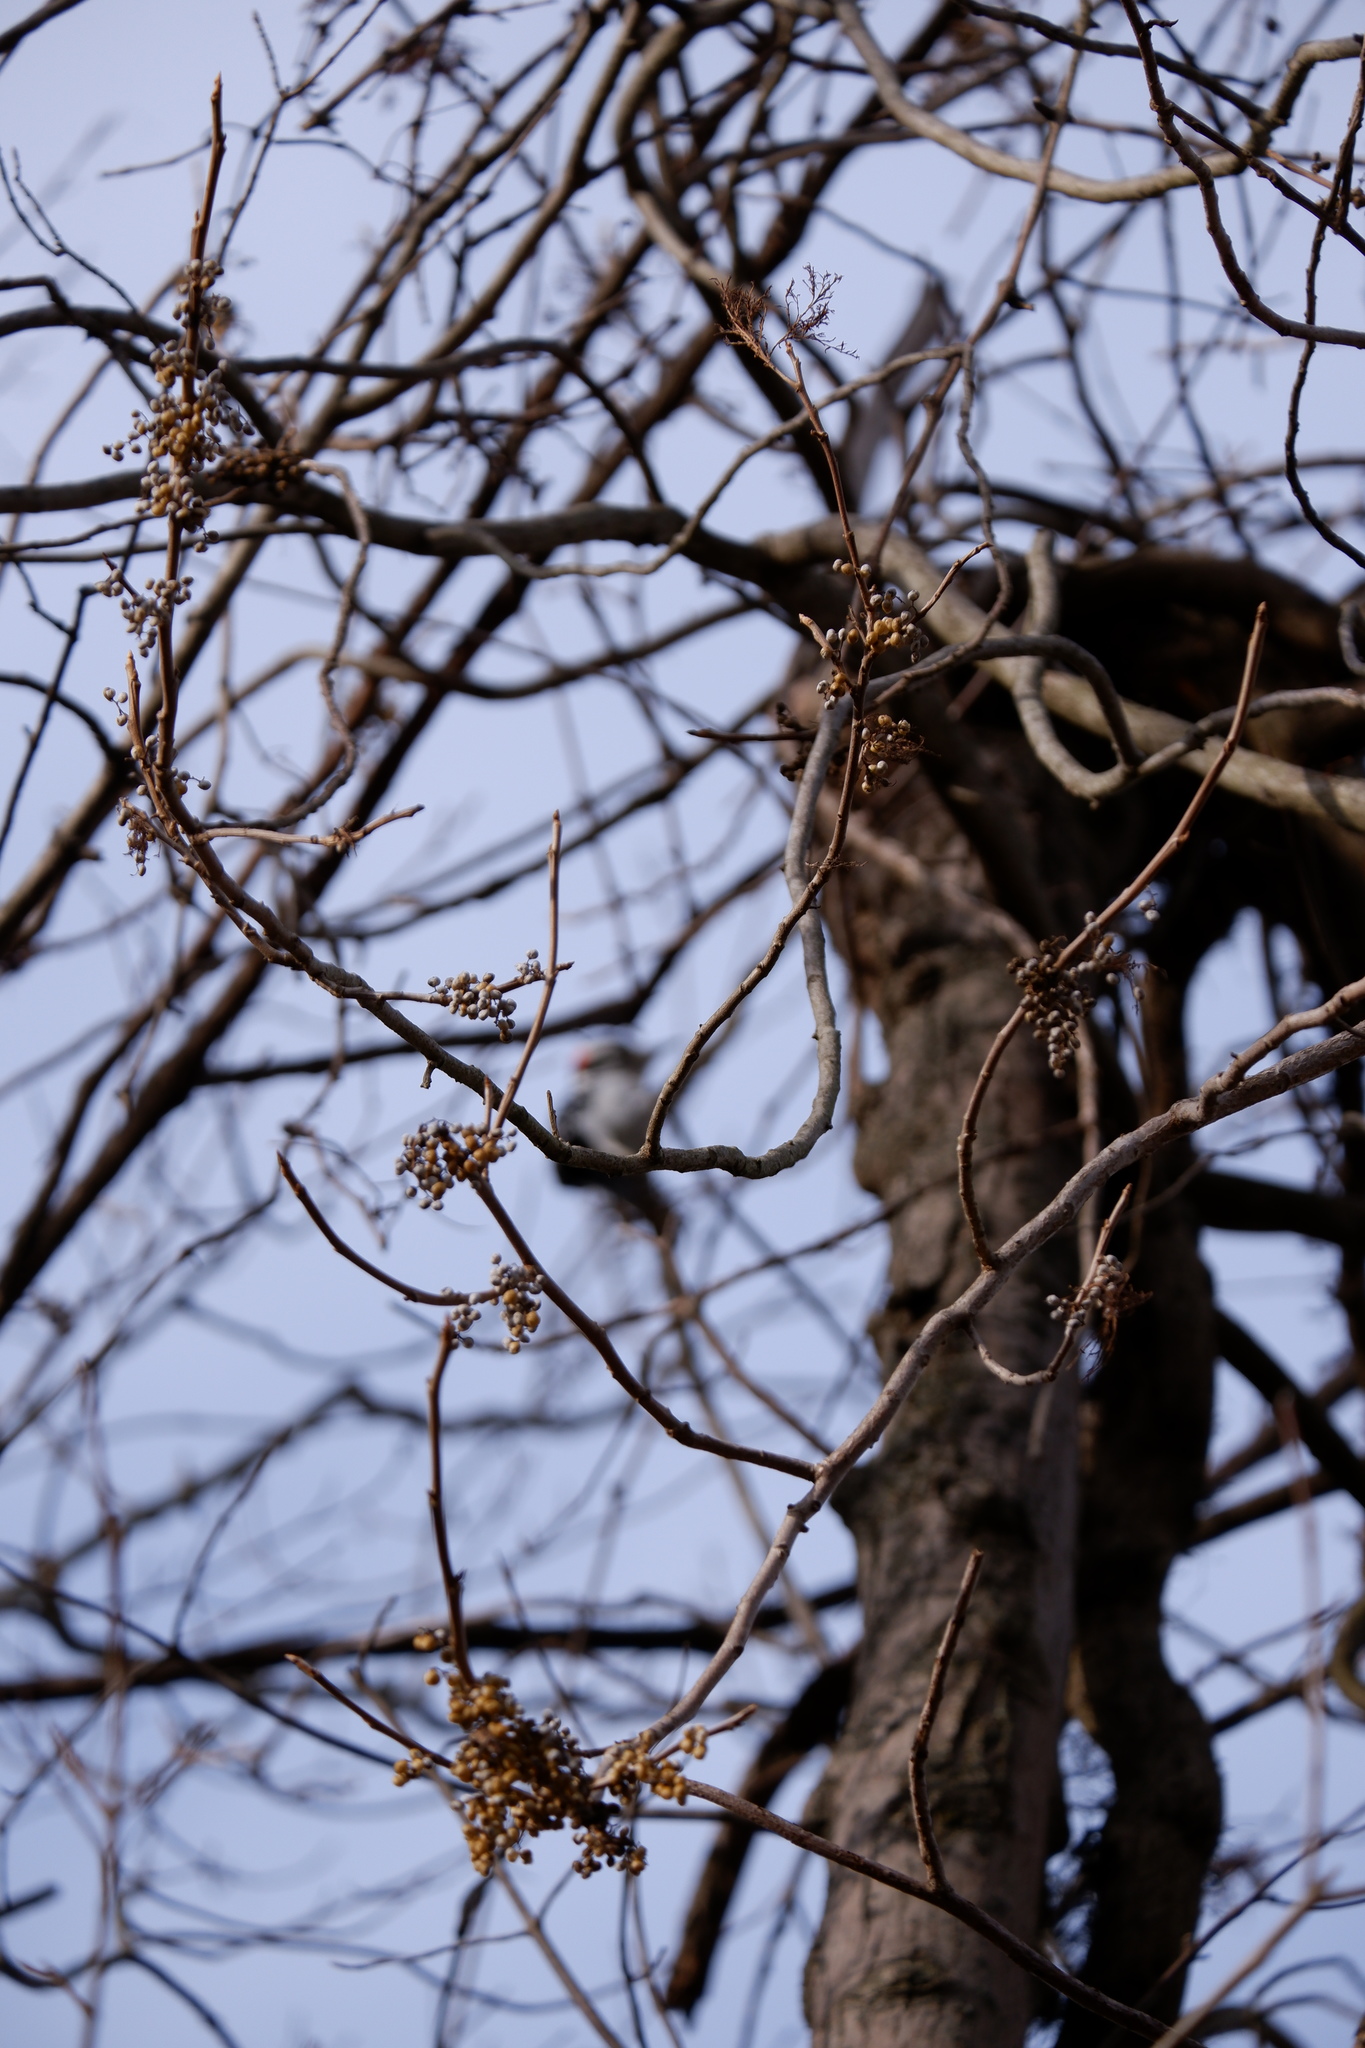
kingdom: Plantae
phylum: Tracheophyta
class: Magnoliopsida
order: Sapindales
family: Anacardiaceae
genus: Toxicodendron
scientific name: Toxicodendron radicans
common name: Poison ivy
